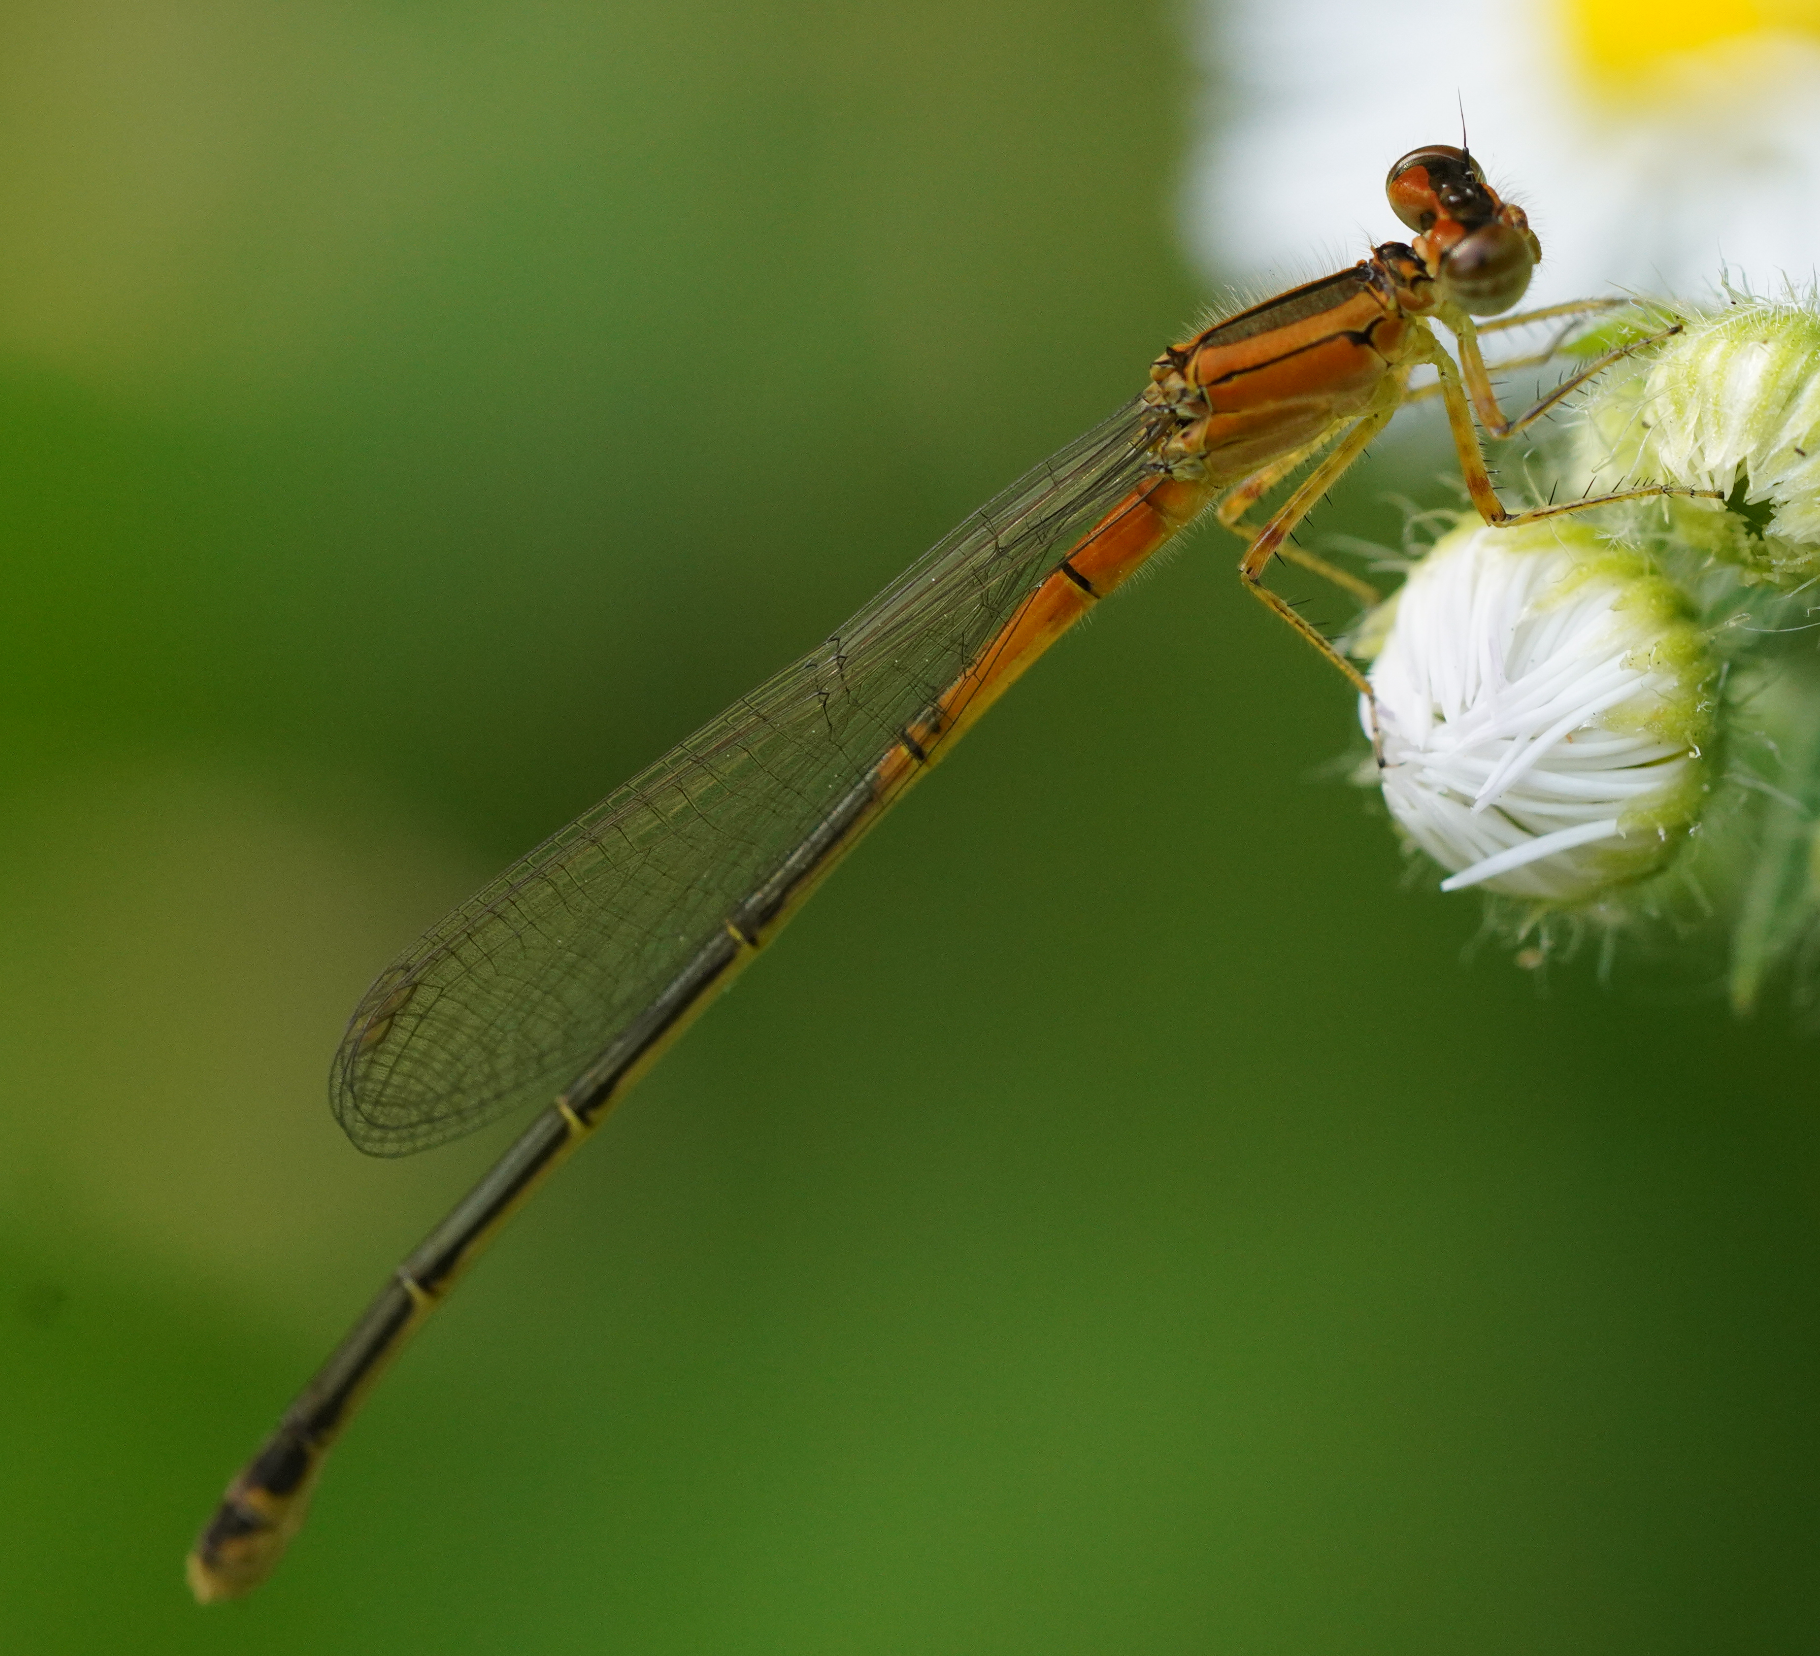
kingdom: Animalia
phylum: Arthropoda
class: Insecta
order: Odonata
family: Coenagrionidae
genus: Ischnura
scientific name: Ischnura verticalis
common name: Eastern forktail
